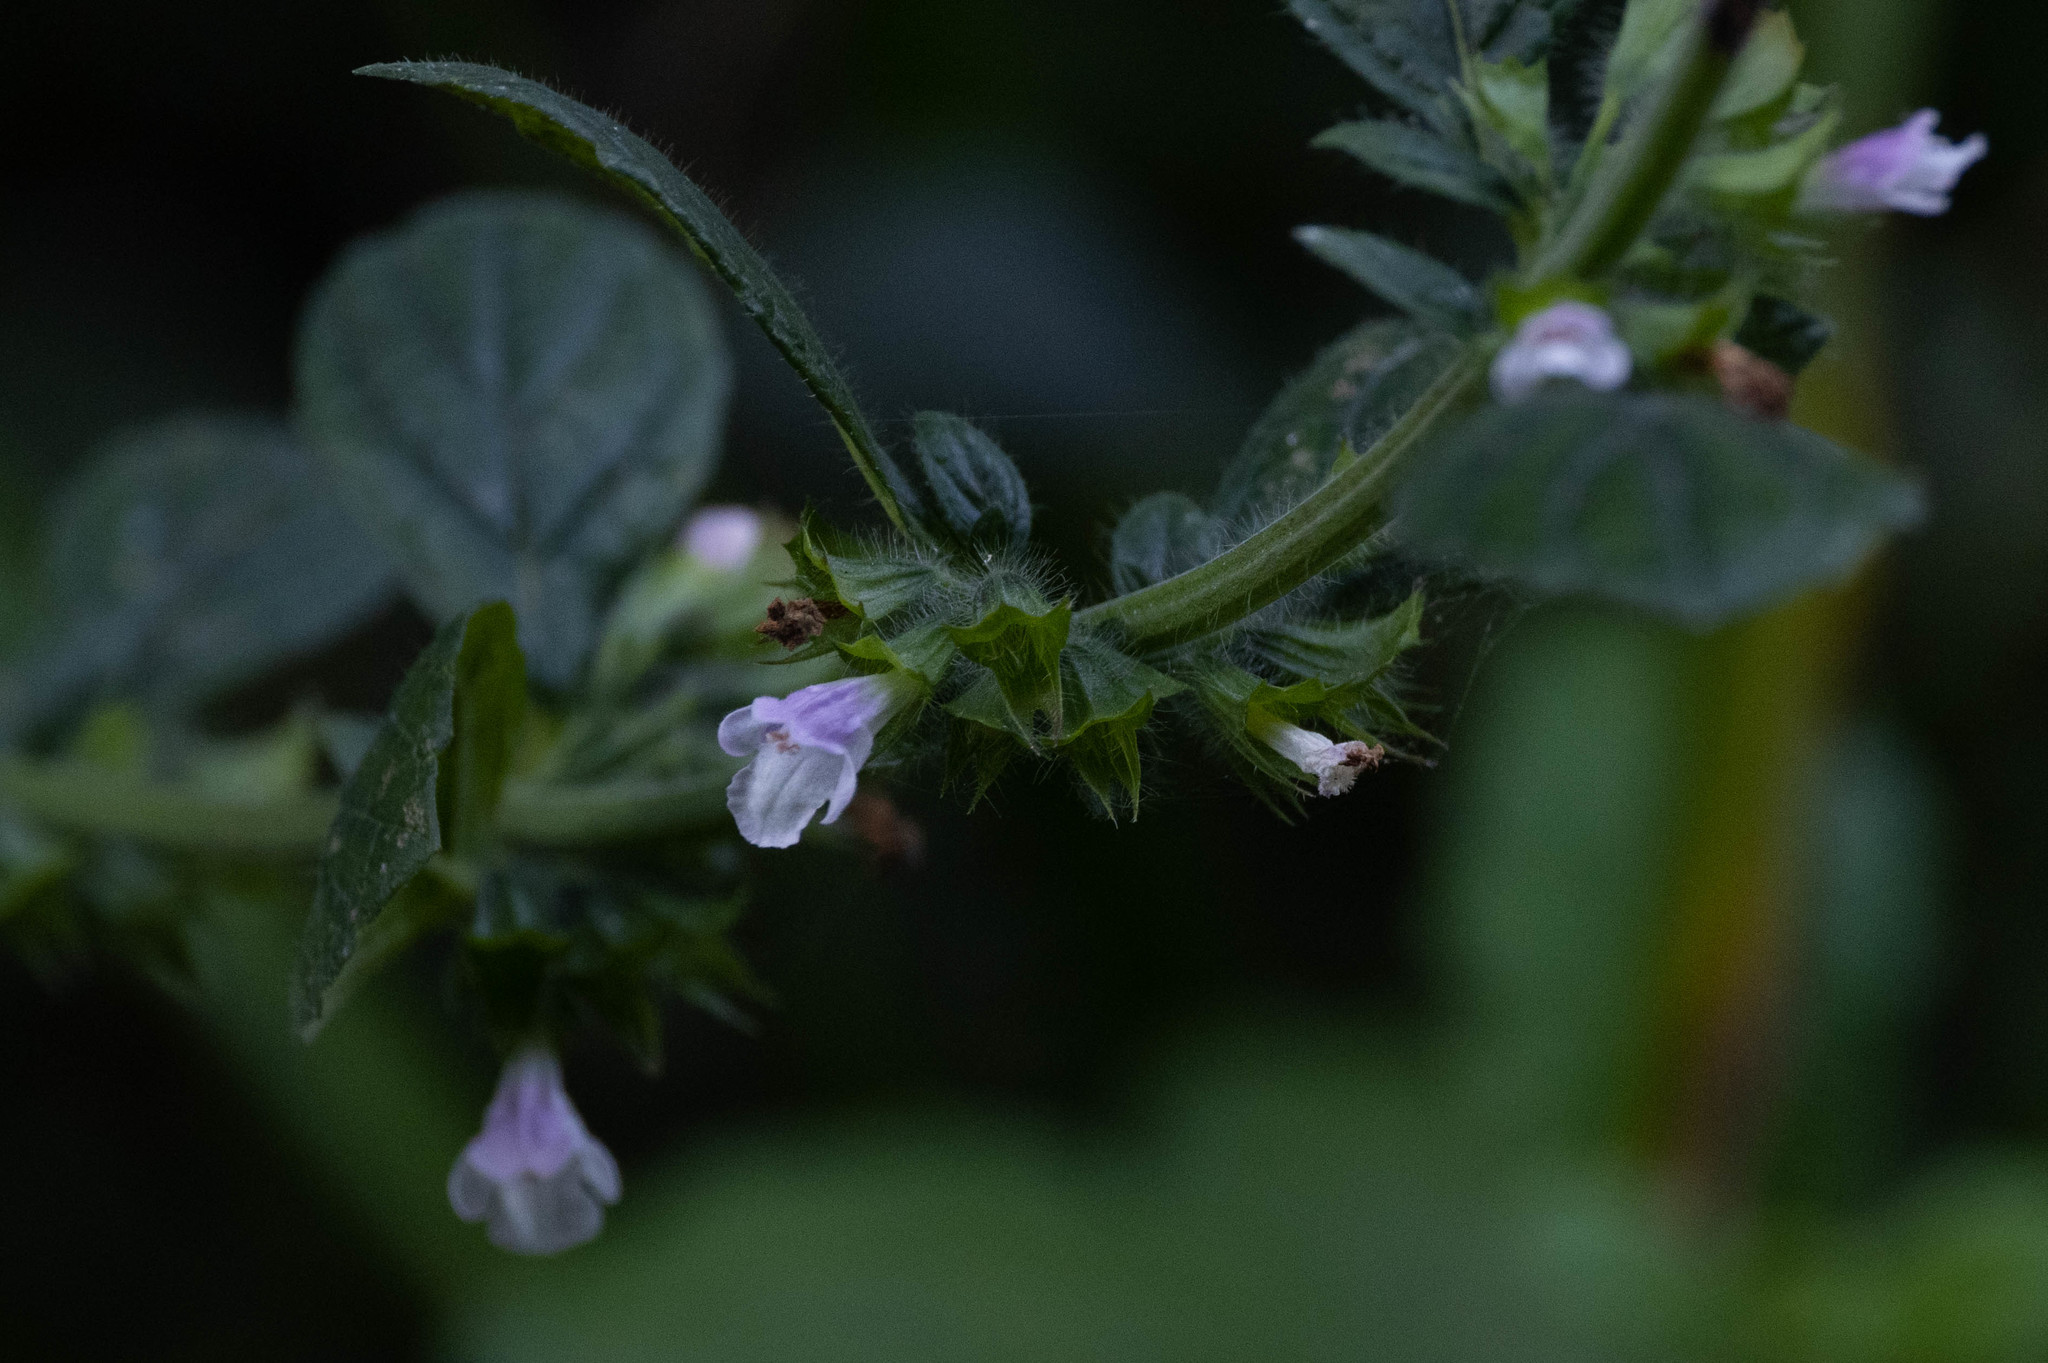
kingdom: Plantae
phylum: Tracheophyta
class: Magnoliopsida
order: Lamiales
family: Lamiaceae
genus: Melissa
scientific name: Melissa officinalis
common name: Balm
